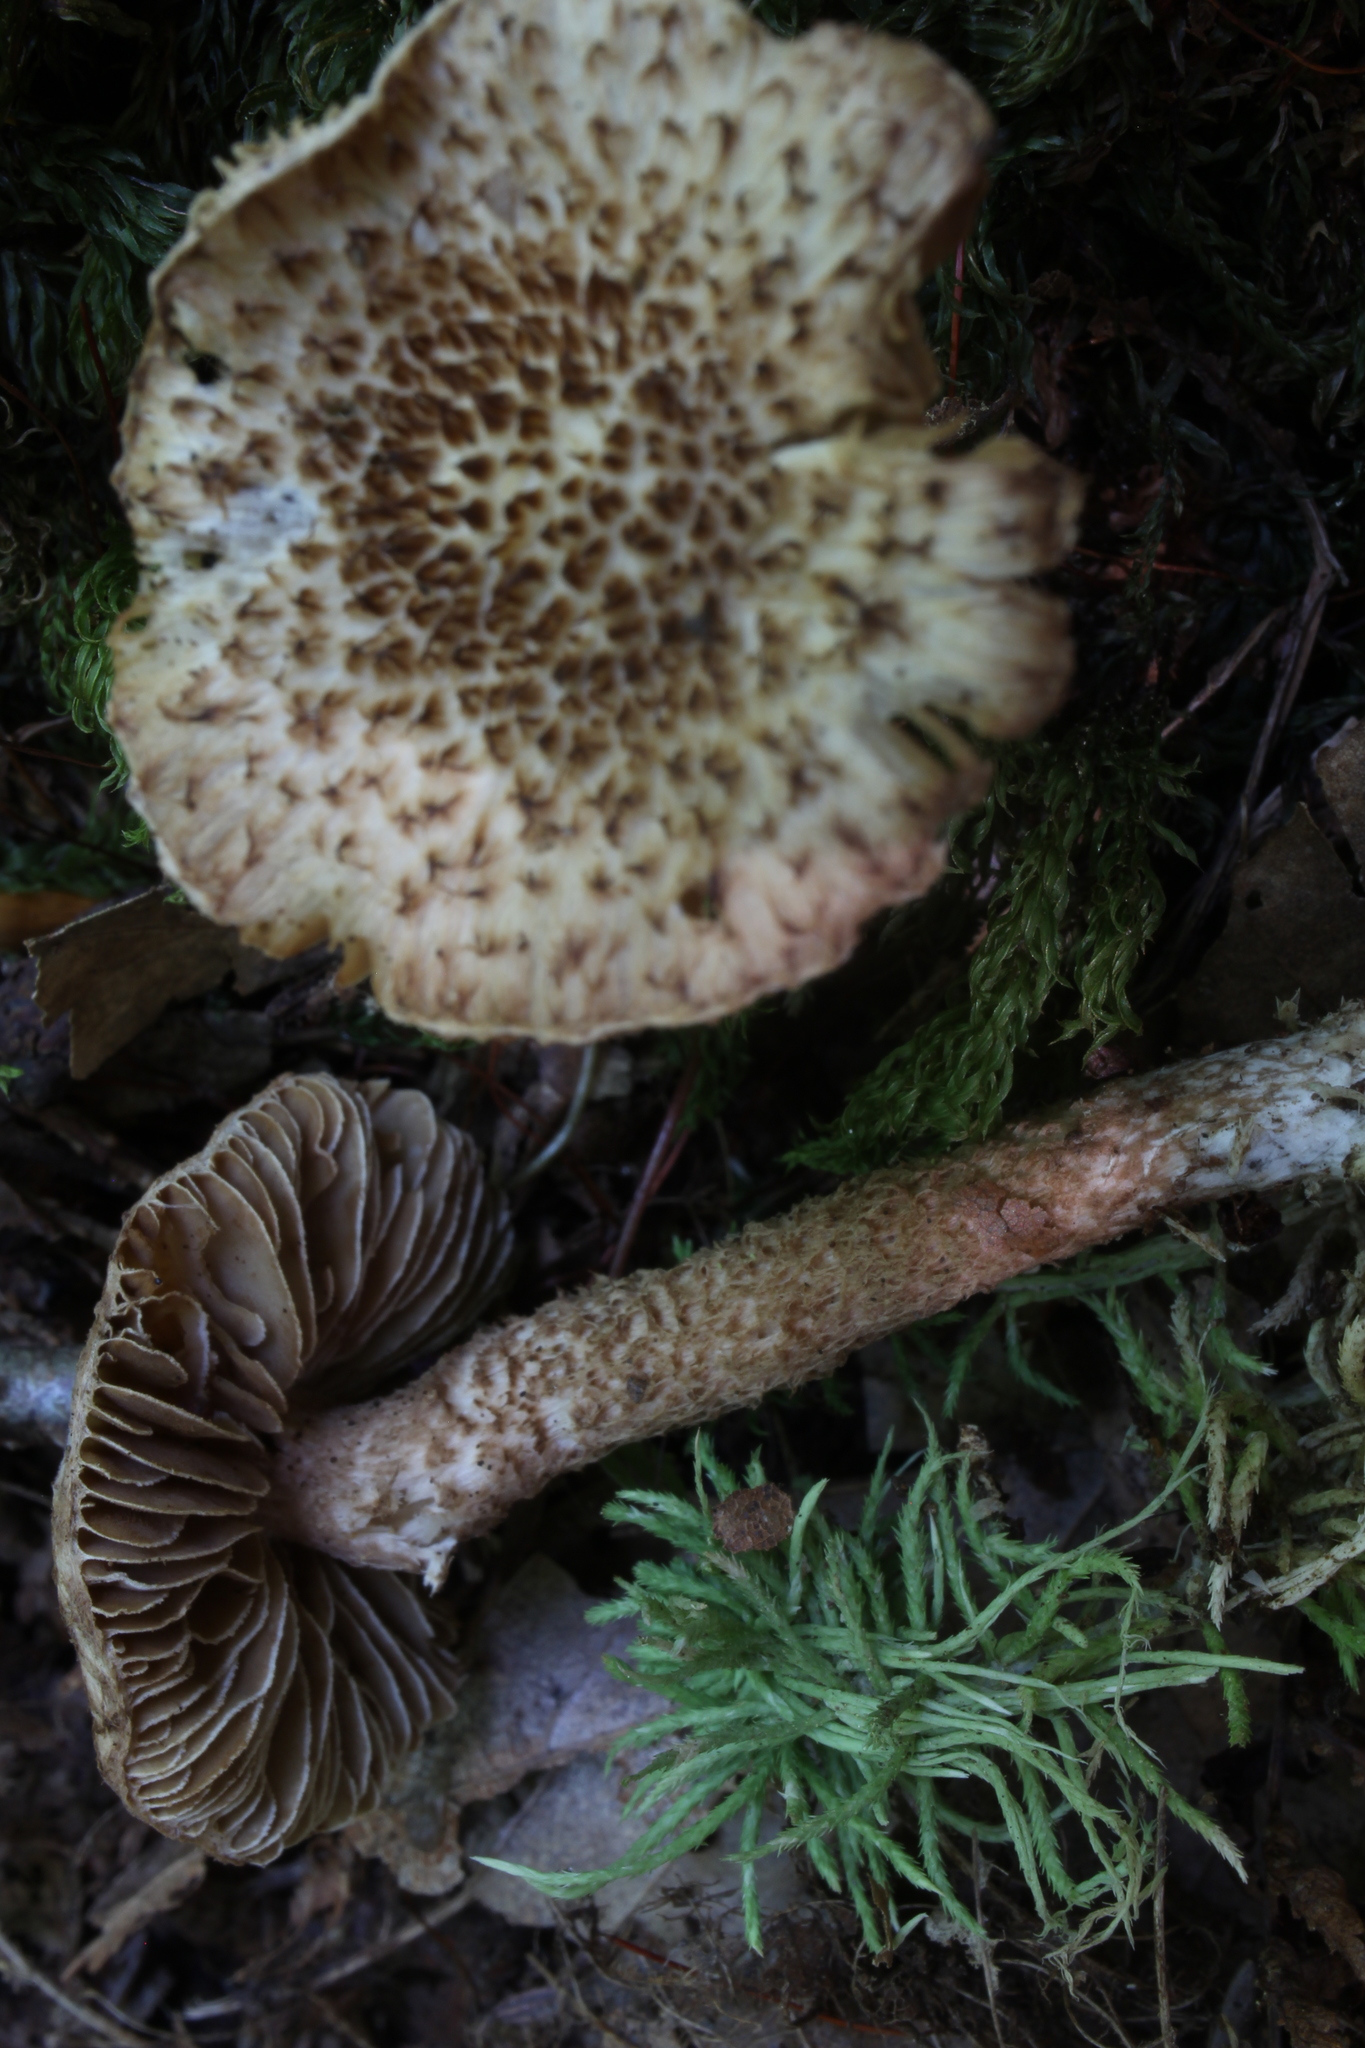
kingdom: Fungi
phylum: Basidiomycota
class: Agaricomycetes
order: Agaricales
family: Inocybaceae
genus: Inocybe
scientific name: Inocybe hystrix
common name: Scaly fibrecap
